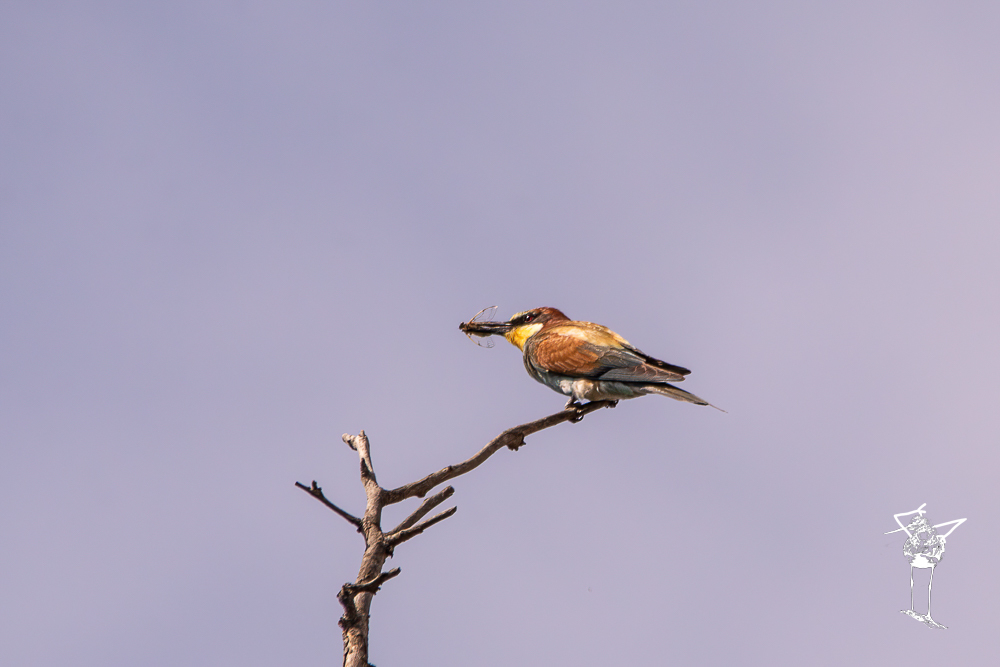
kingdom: Animalia
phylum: Chordata
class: Aves
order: Coraciiformes
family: Meropidae
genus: Merops
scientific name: Merops apiaster
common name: European bee-eater
